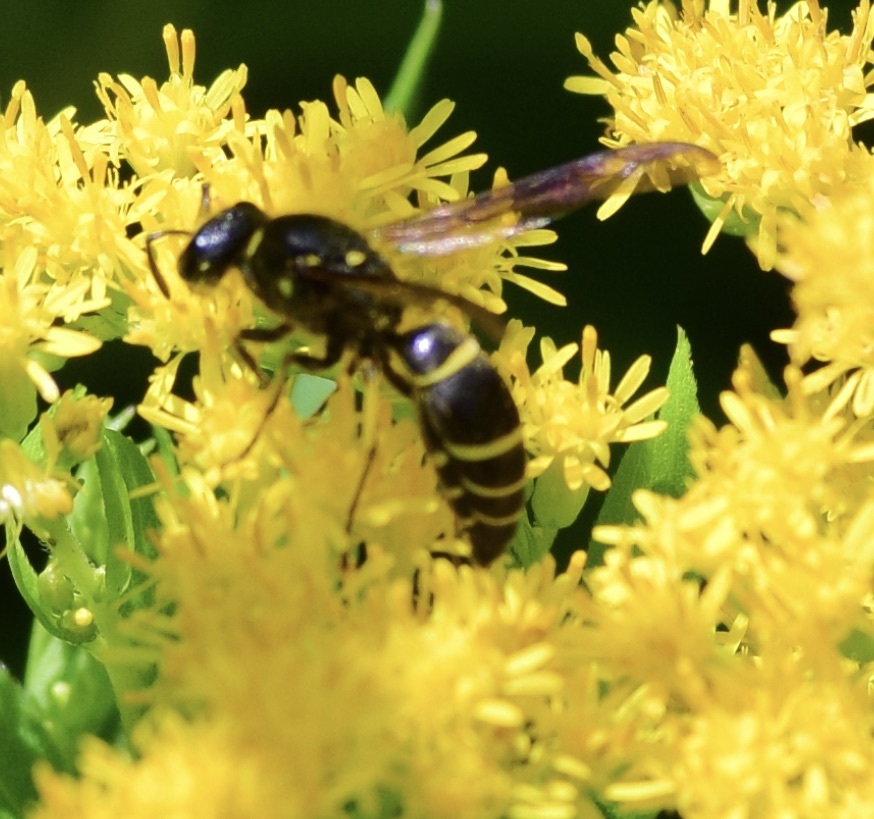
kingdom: Animalia
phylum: Arthropoda
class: Insecta
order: Hymenoptera
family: Vespidae
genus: Ancistrocerus
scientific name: Ancistrocerus
